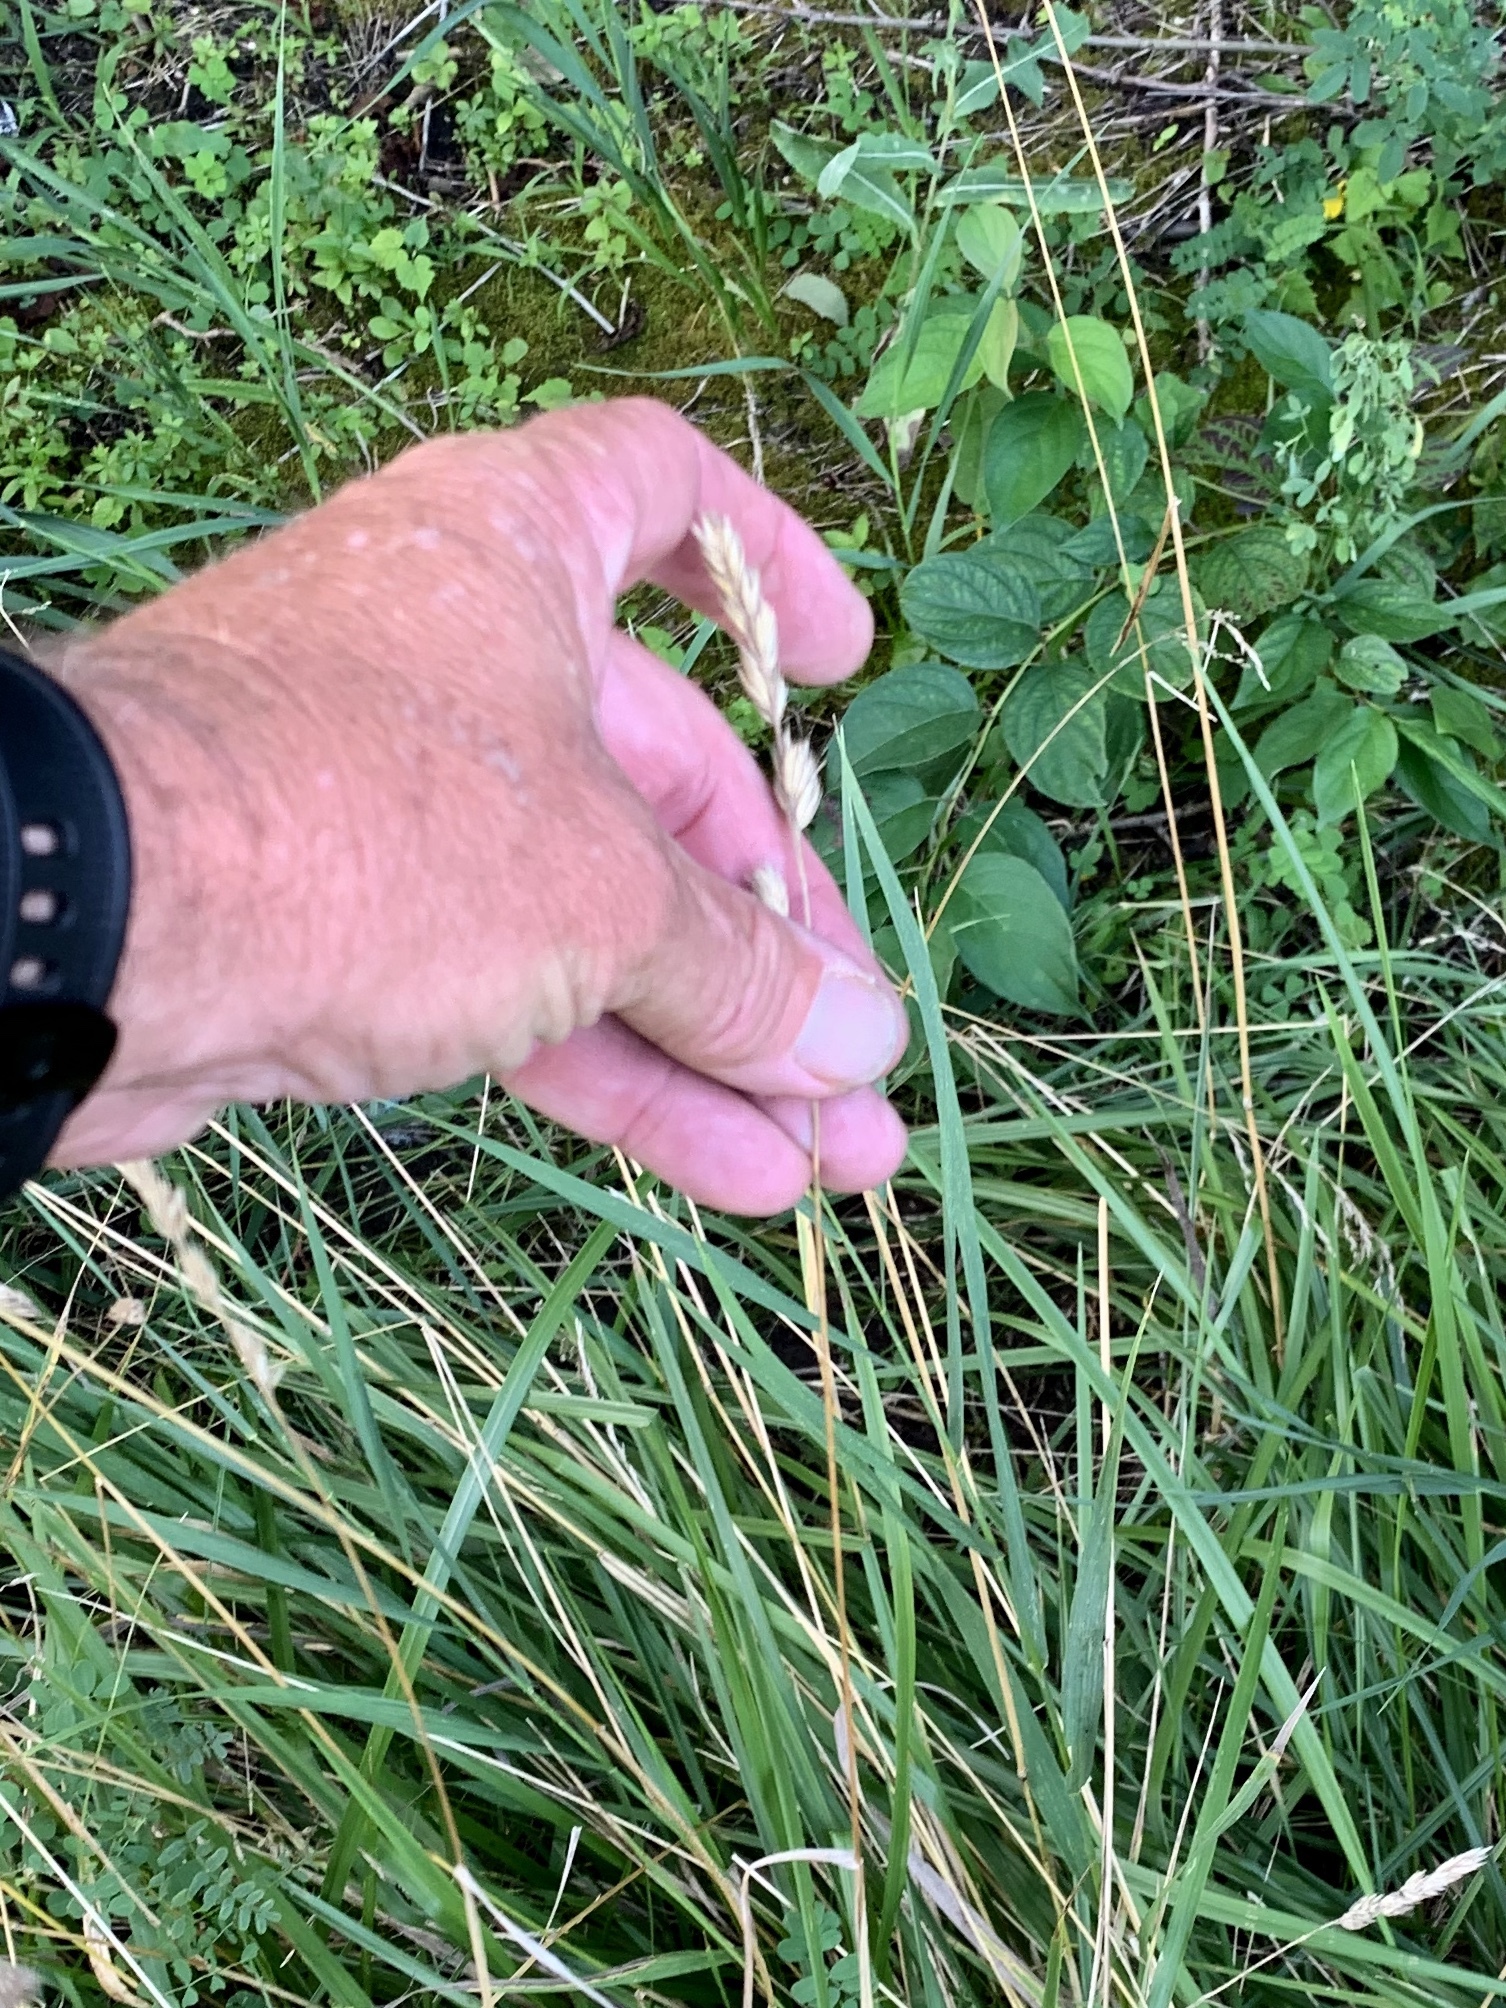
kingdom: Plantae
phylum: Tracheophyta
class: Liliopsida
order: Poales
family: Poaceae
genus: Dactylis
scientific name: Dactylis glomerata
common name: Orchardgrass
